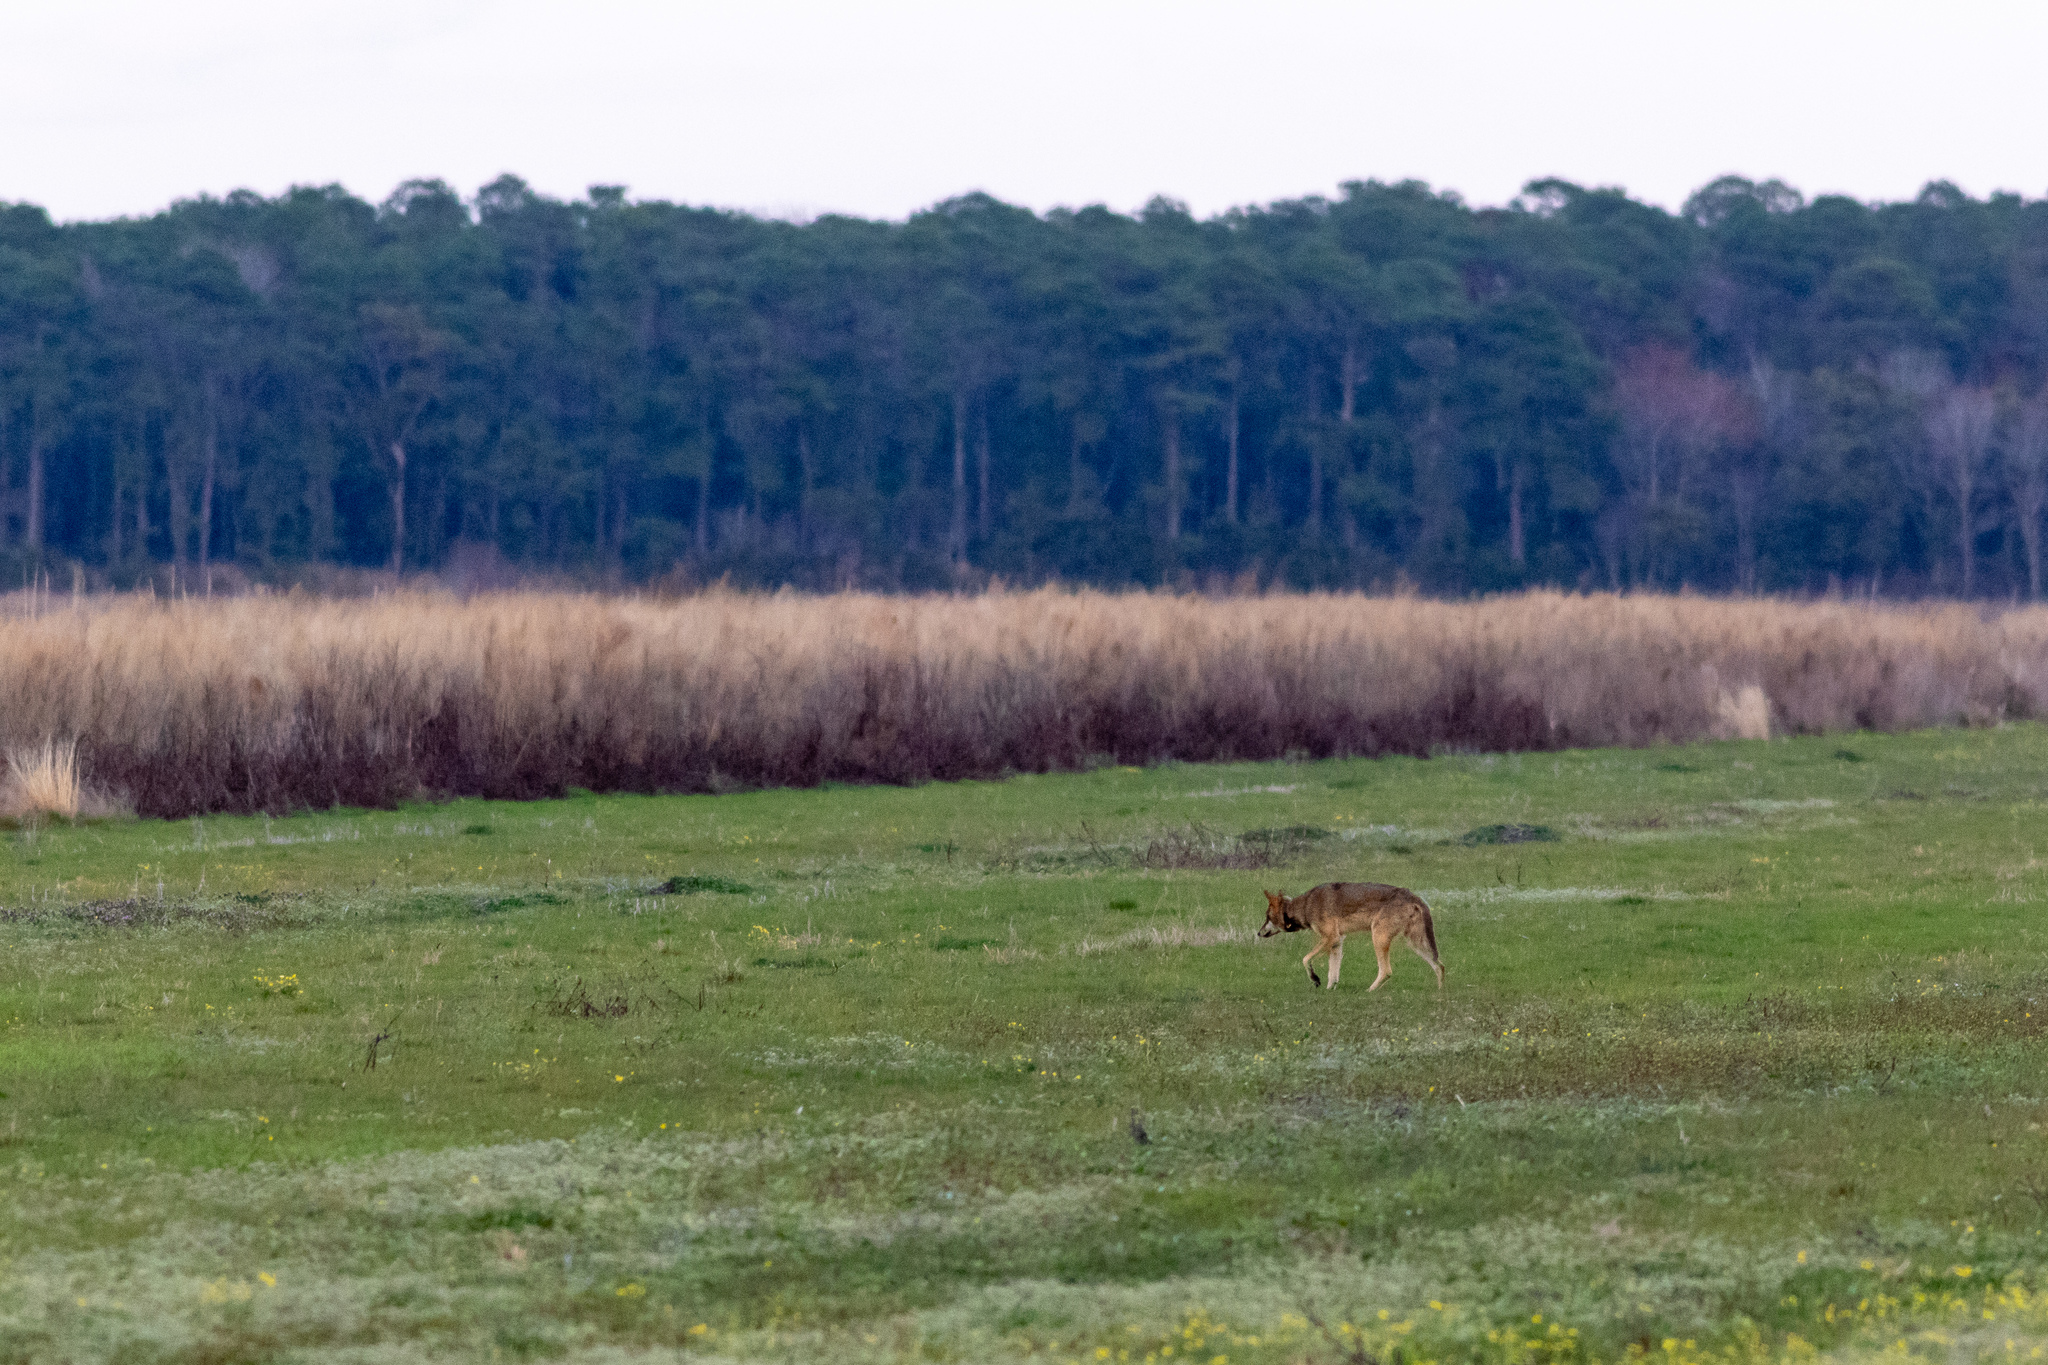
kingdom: Animalia
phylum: Chordata
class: Mammalia
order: Carnivora
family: Canidae
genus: Canis
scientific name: Canis lupus
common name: Gray wolf
